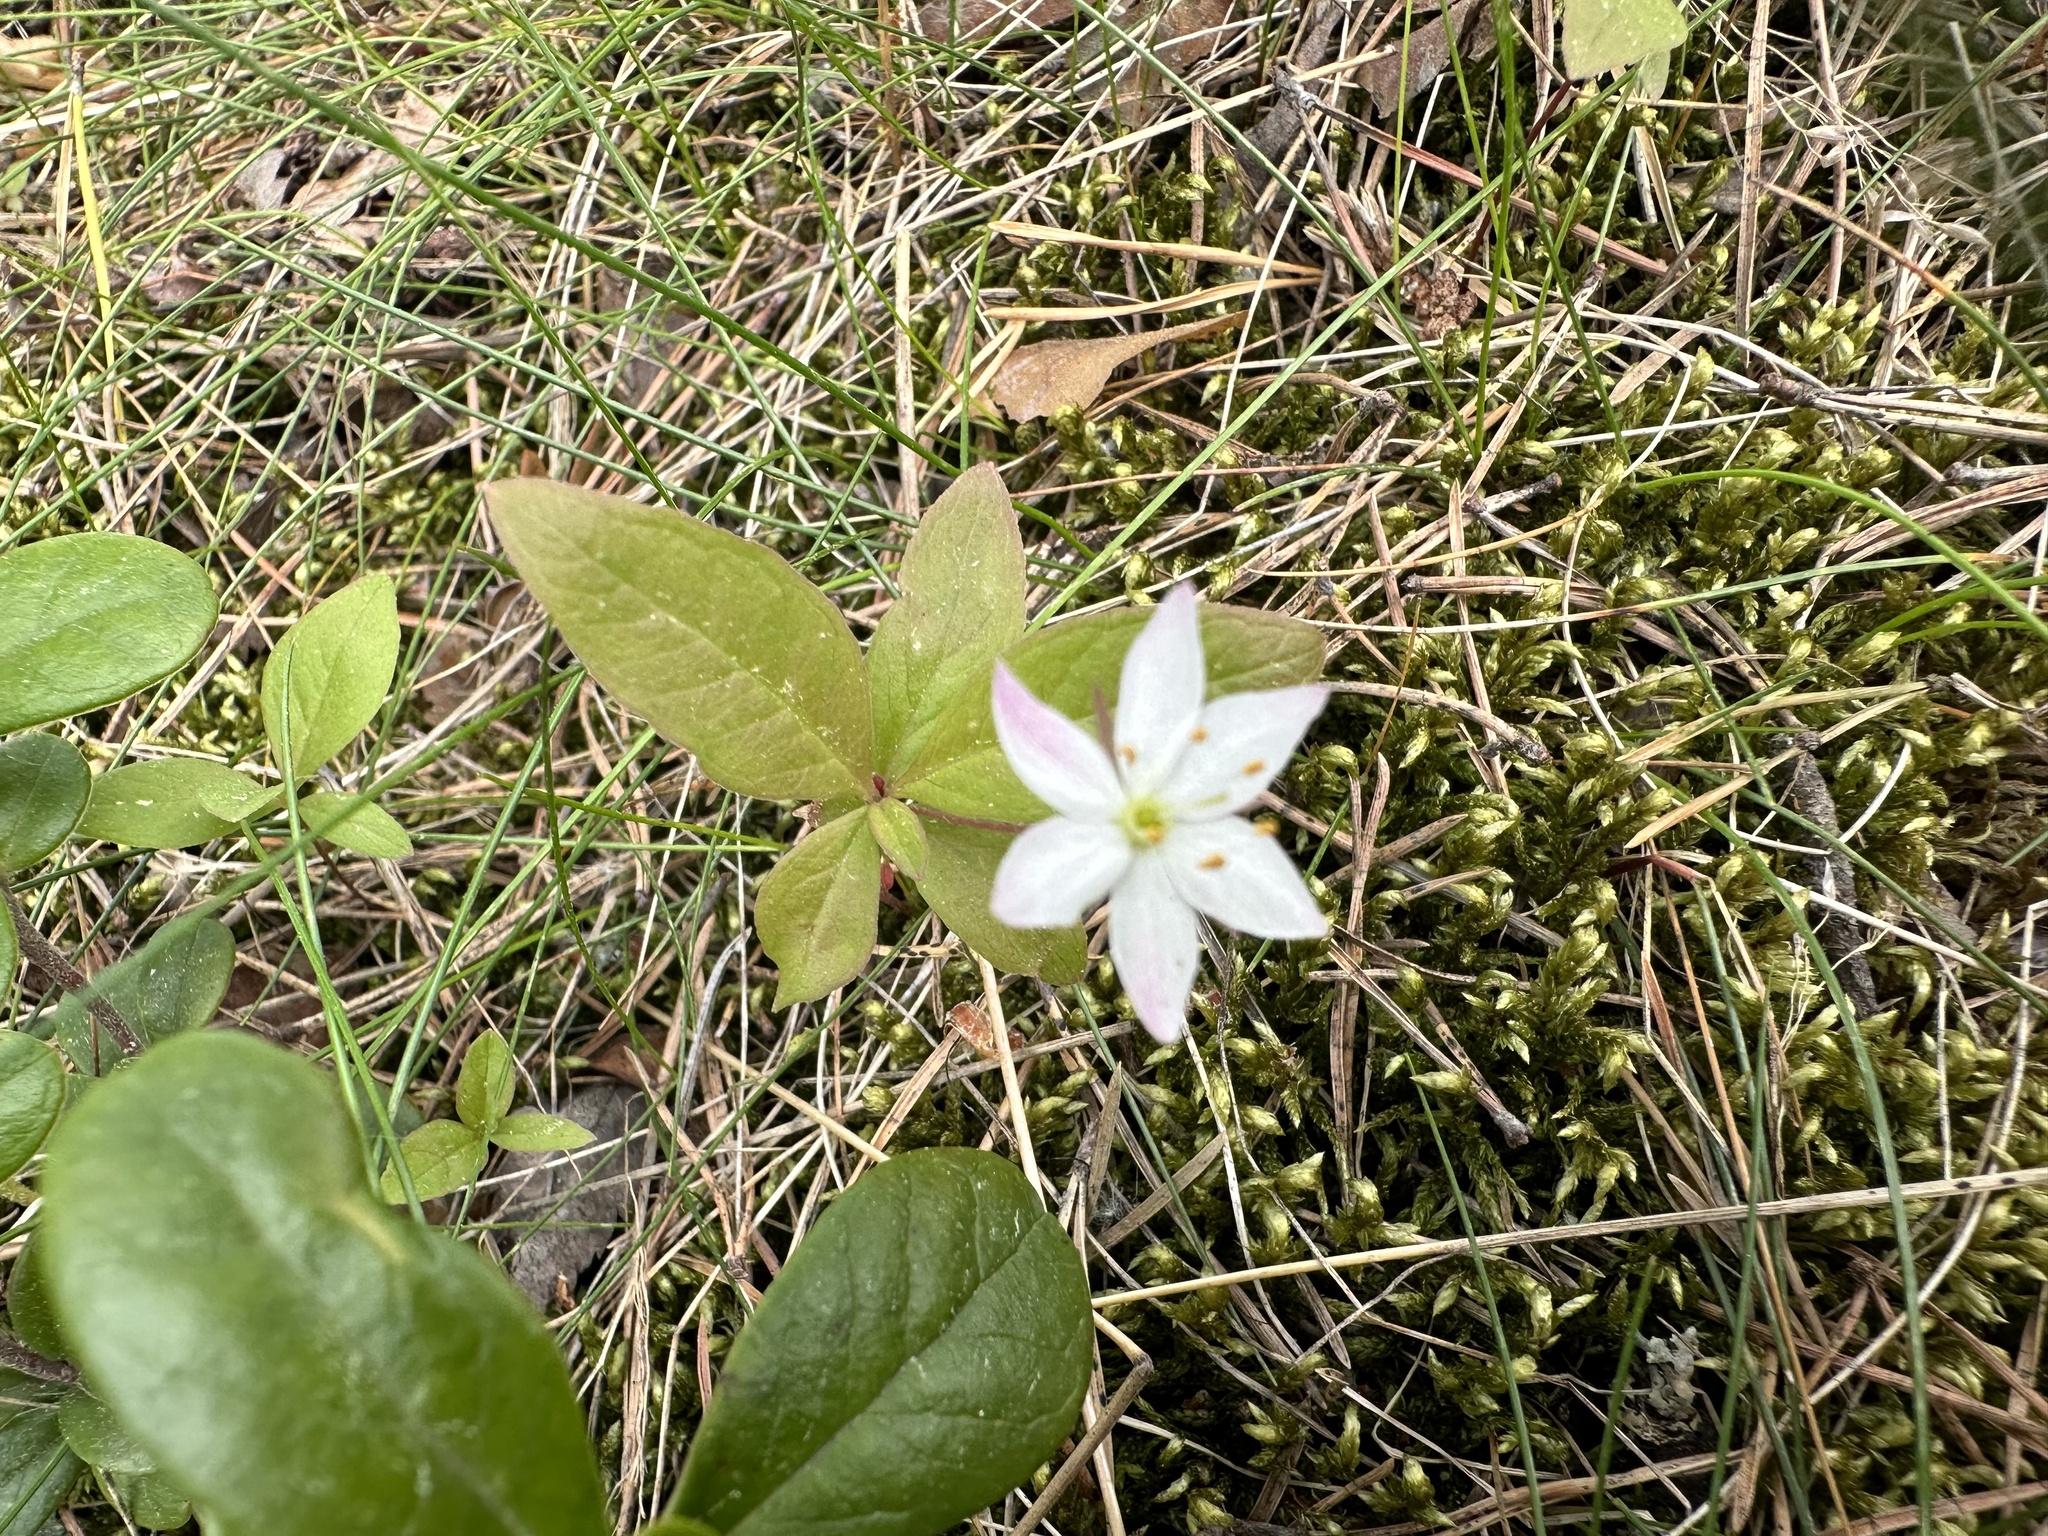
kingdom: Plantae
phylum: Tracheophyta
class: Magnoliopsida
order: Ericales
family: Primulaceae
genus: Lysimachia
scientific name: Lysimachia europaea
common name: Arctic starflower
